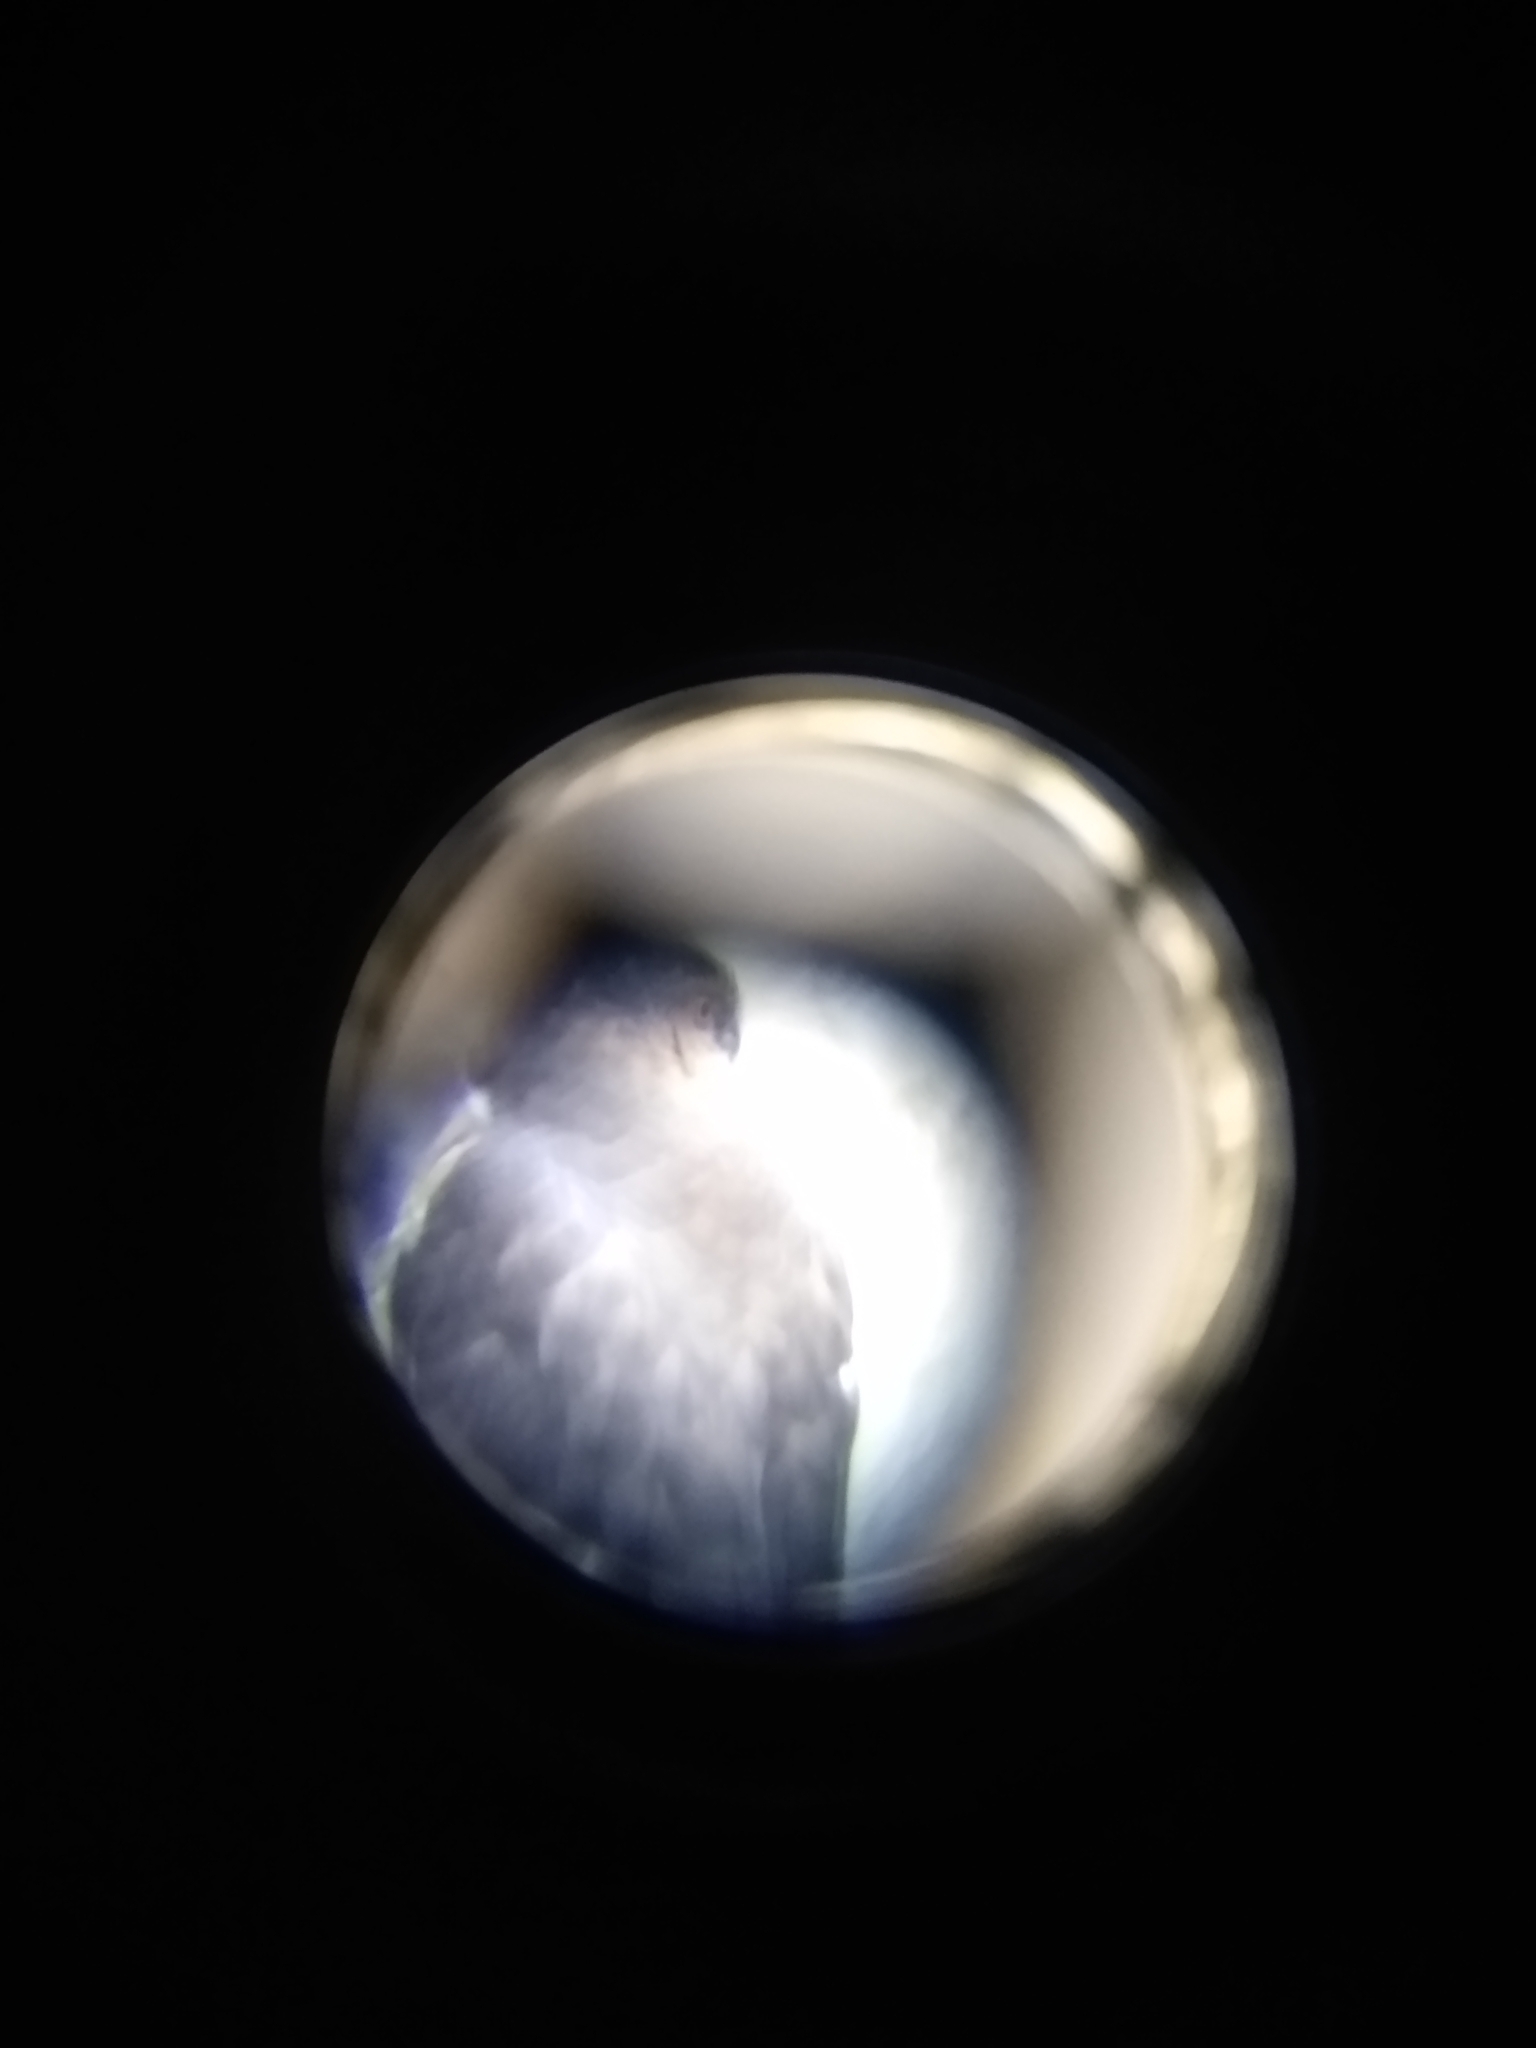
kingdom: Animalia
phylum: Chordata
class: Aves
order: Accipitriformes
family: Accipitridae
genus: Accipiter
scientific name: Accipiter cooperii
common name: Cooper's hawk
